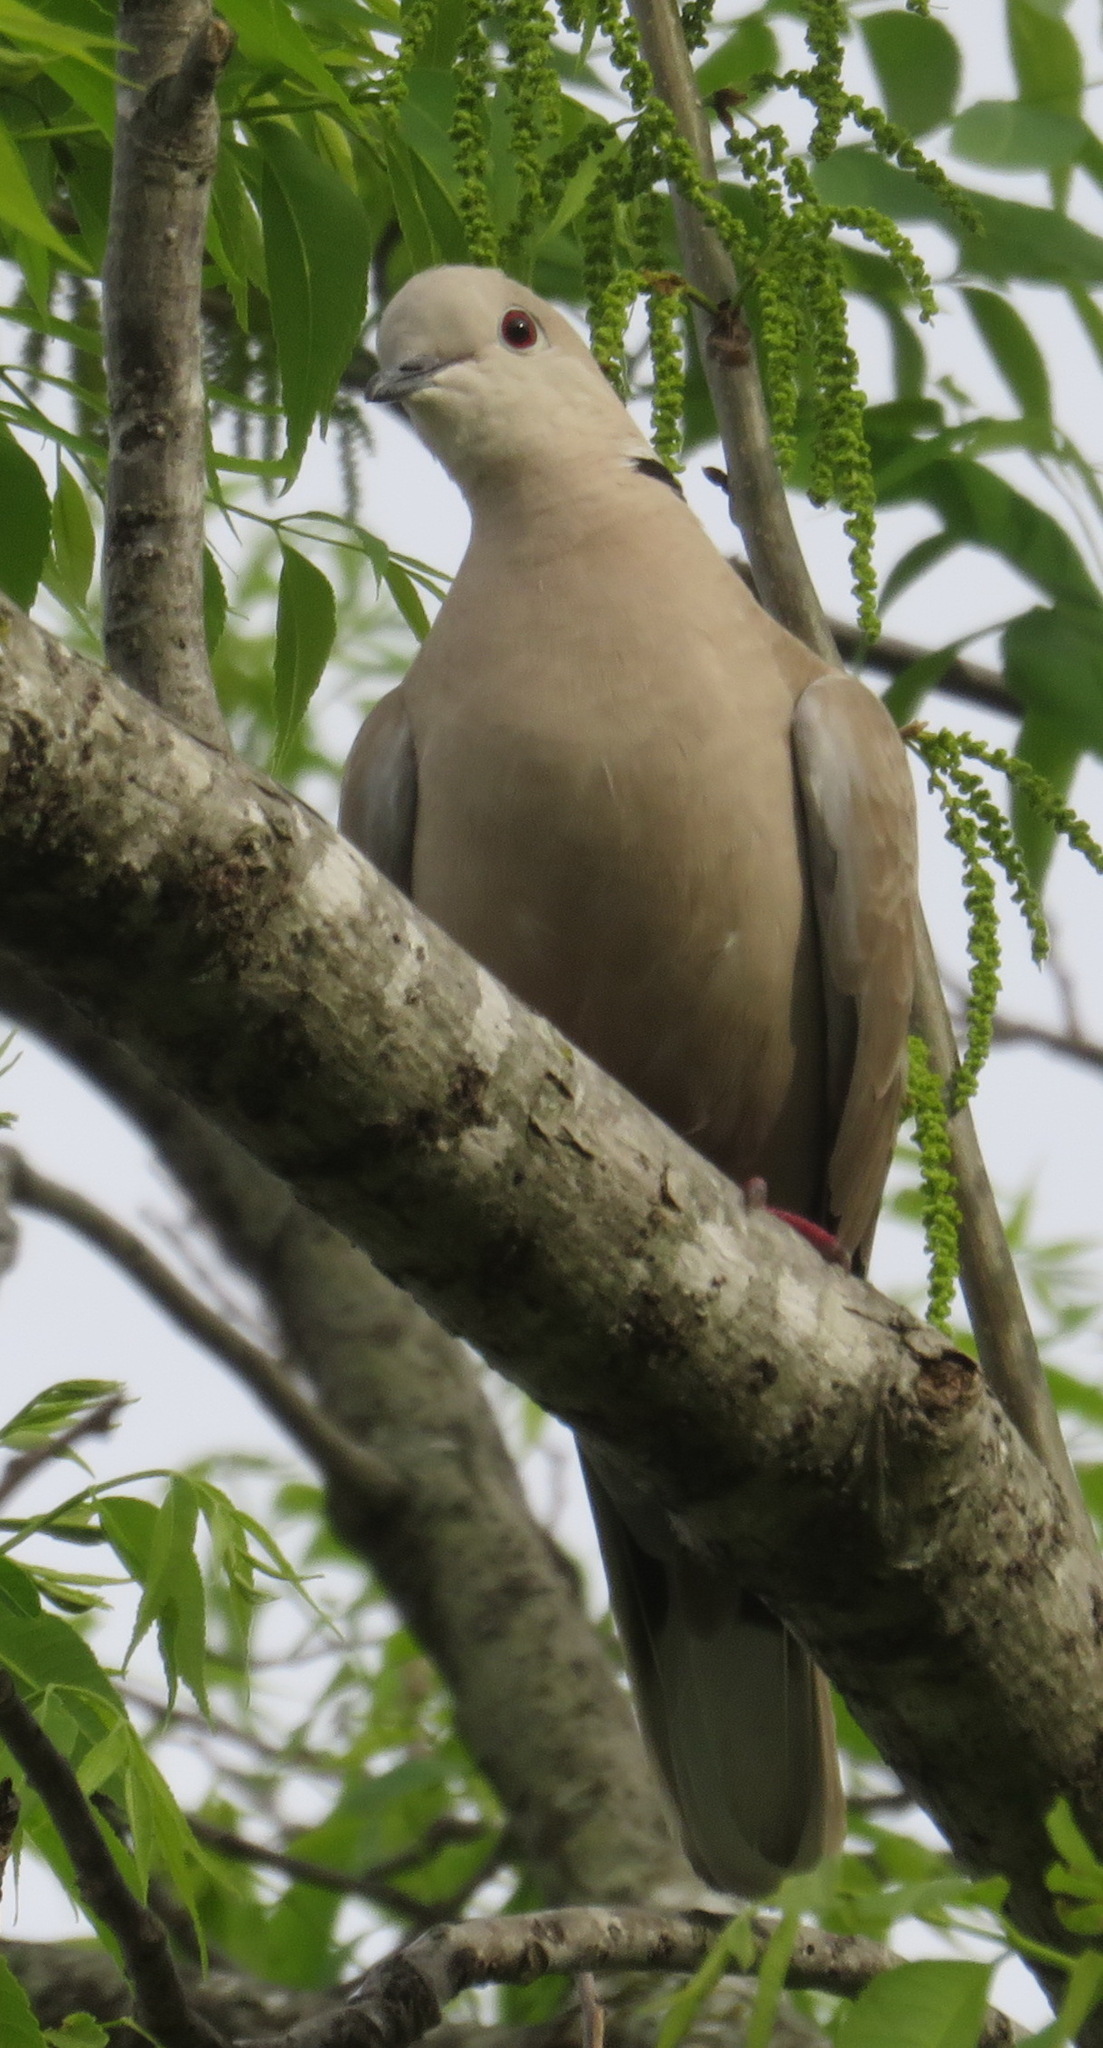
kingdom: Animalia
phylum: Chordata
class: Aves
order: Columbiformes
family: Columbidae
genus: Streptopelia
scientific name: Streptopelia decaocto
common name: Eurasian collared dove
